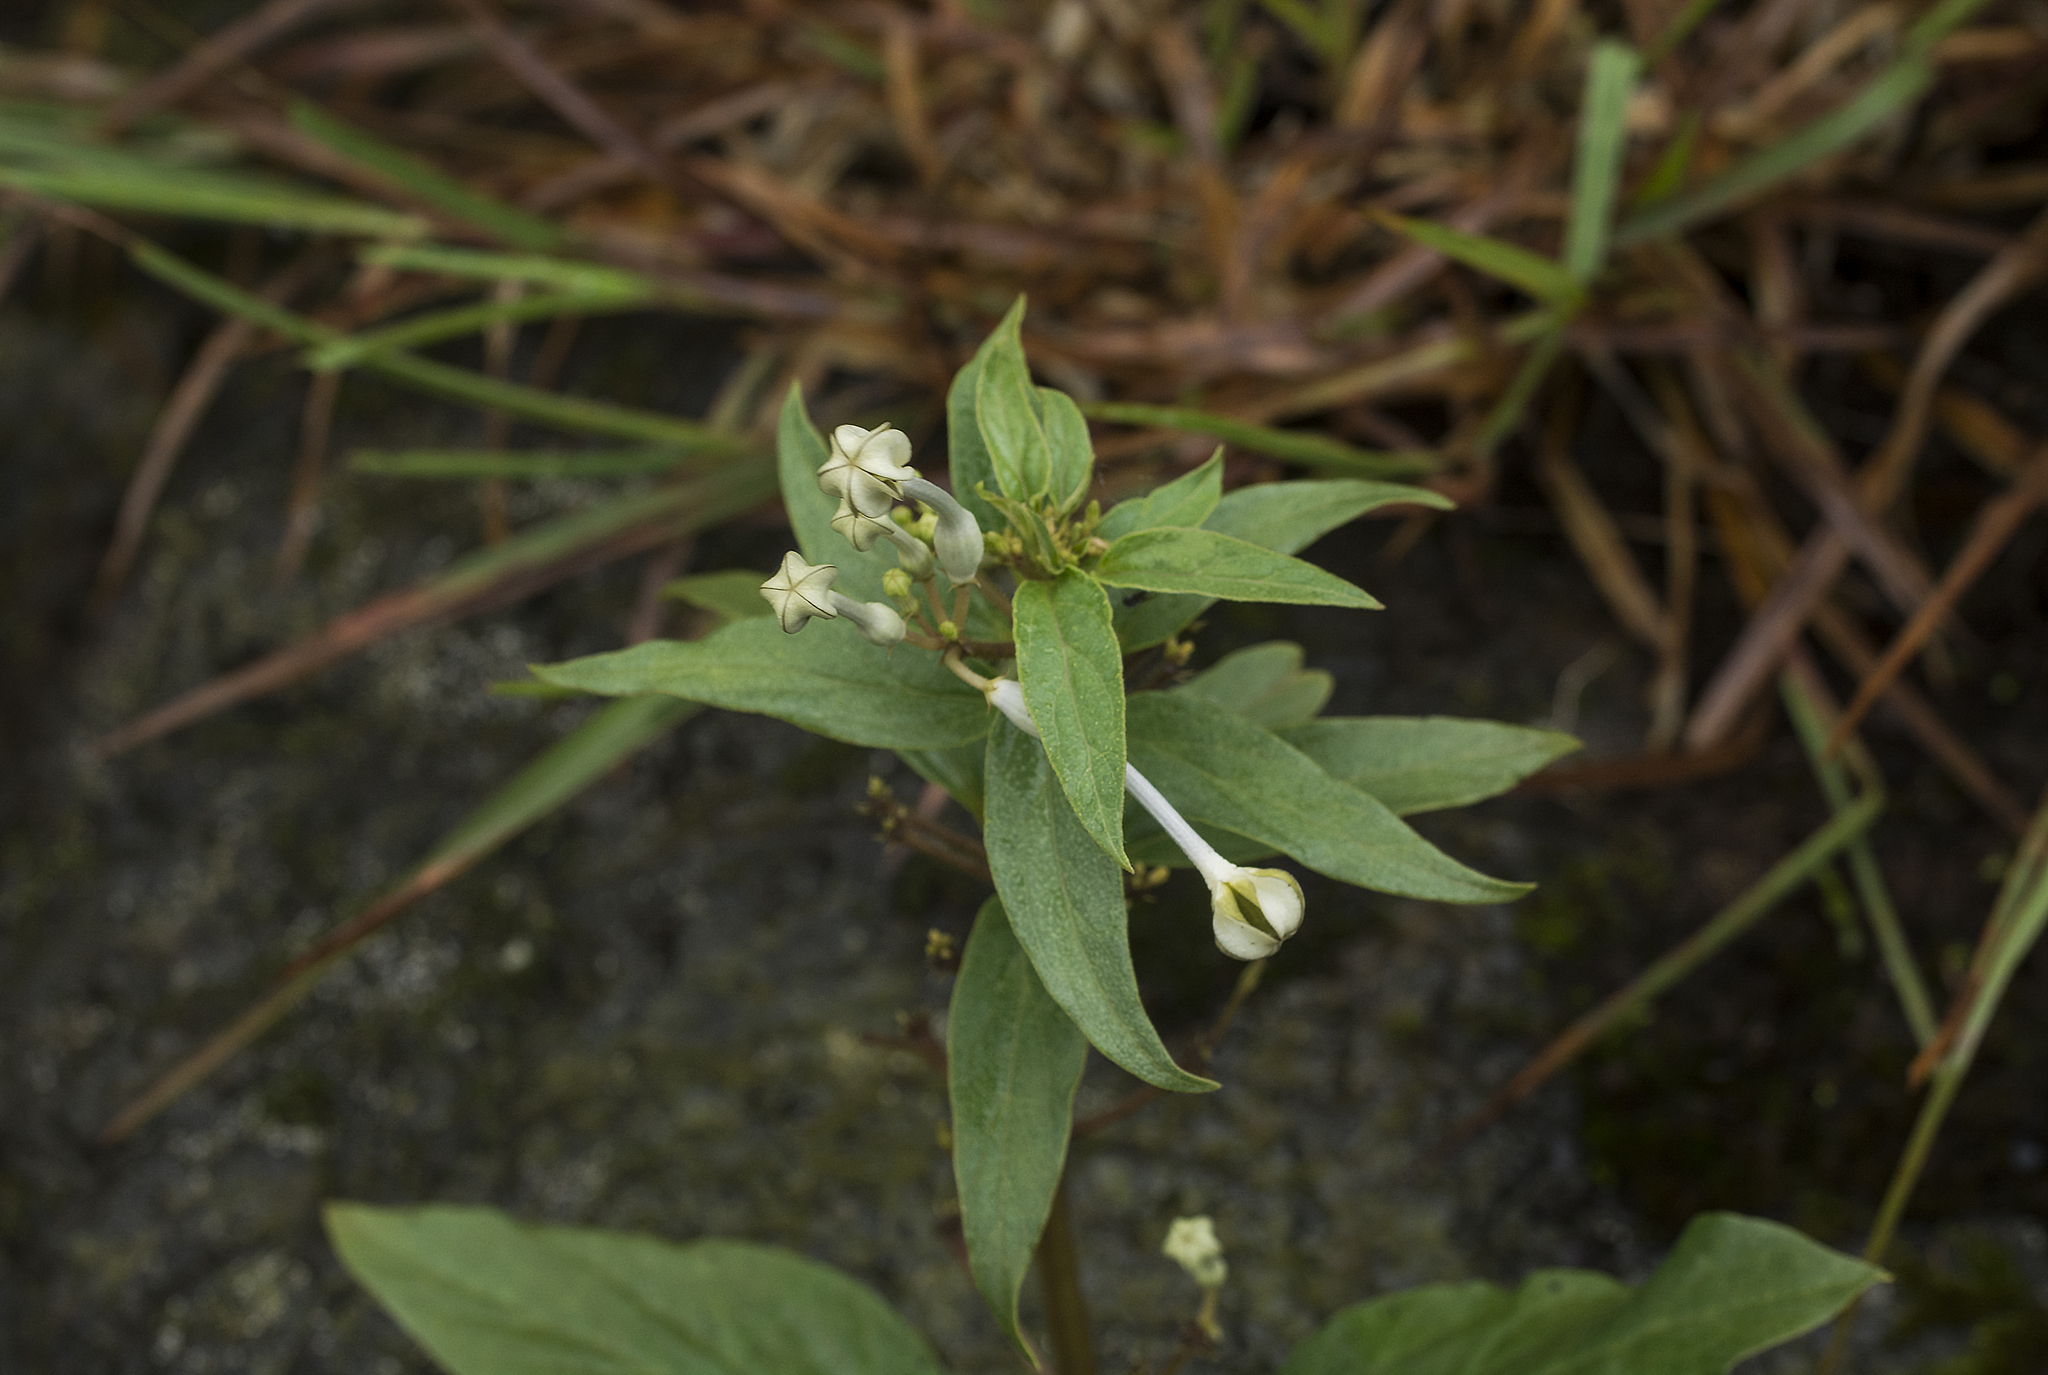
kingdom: Plantae
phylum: Tracheophyta
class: Magnoliopsida
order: Gentianales
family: Apocynaceae
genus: Ceropegia
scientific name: Ceropegia lawii
